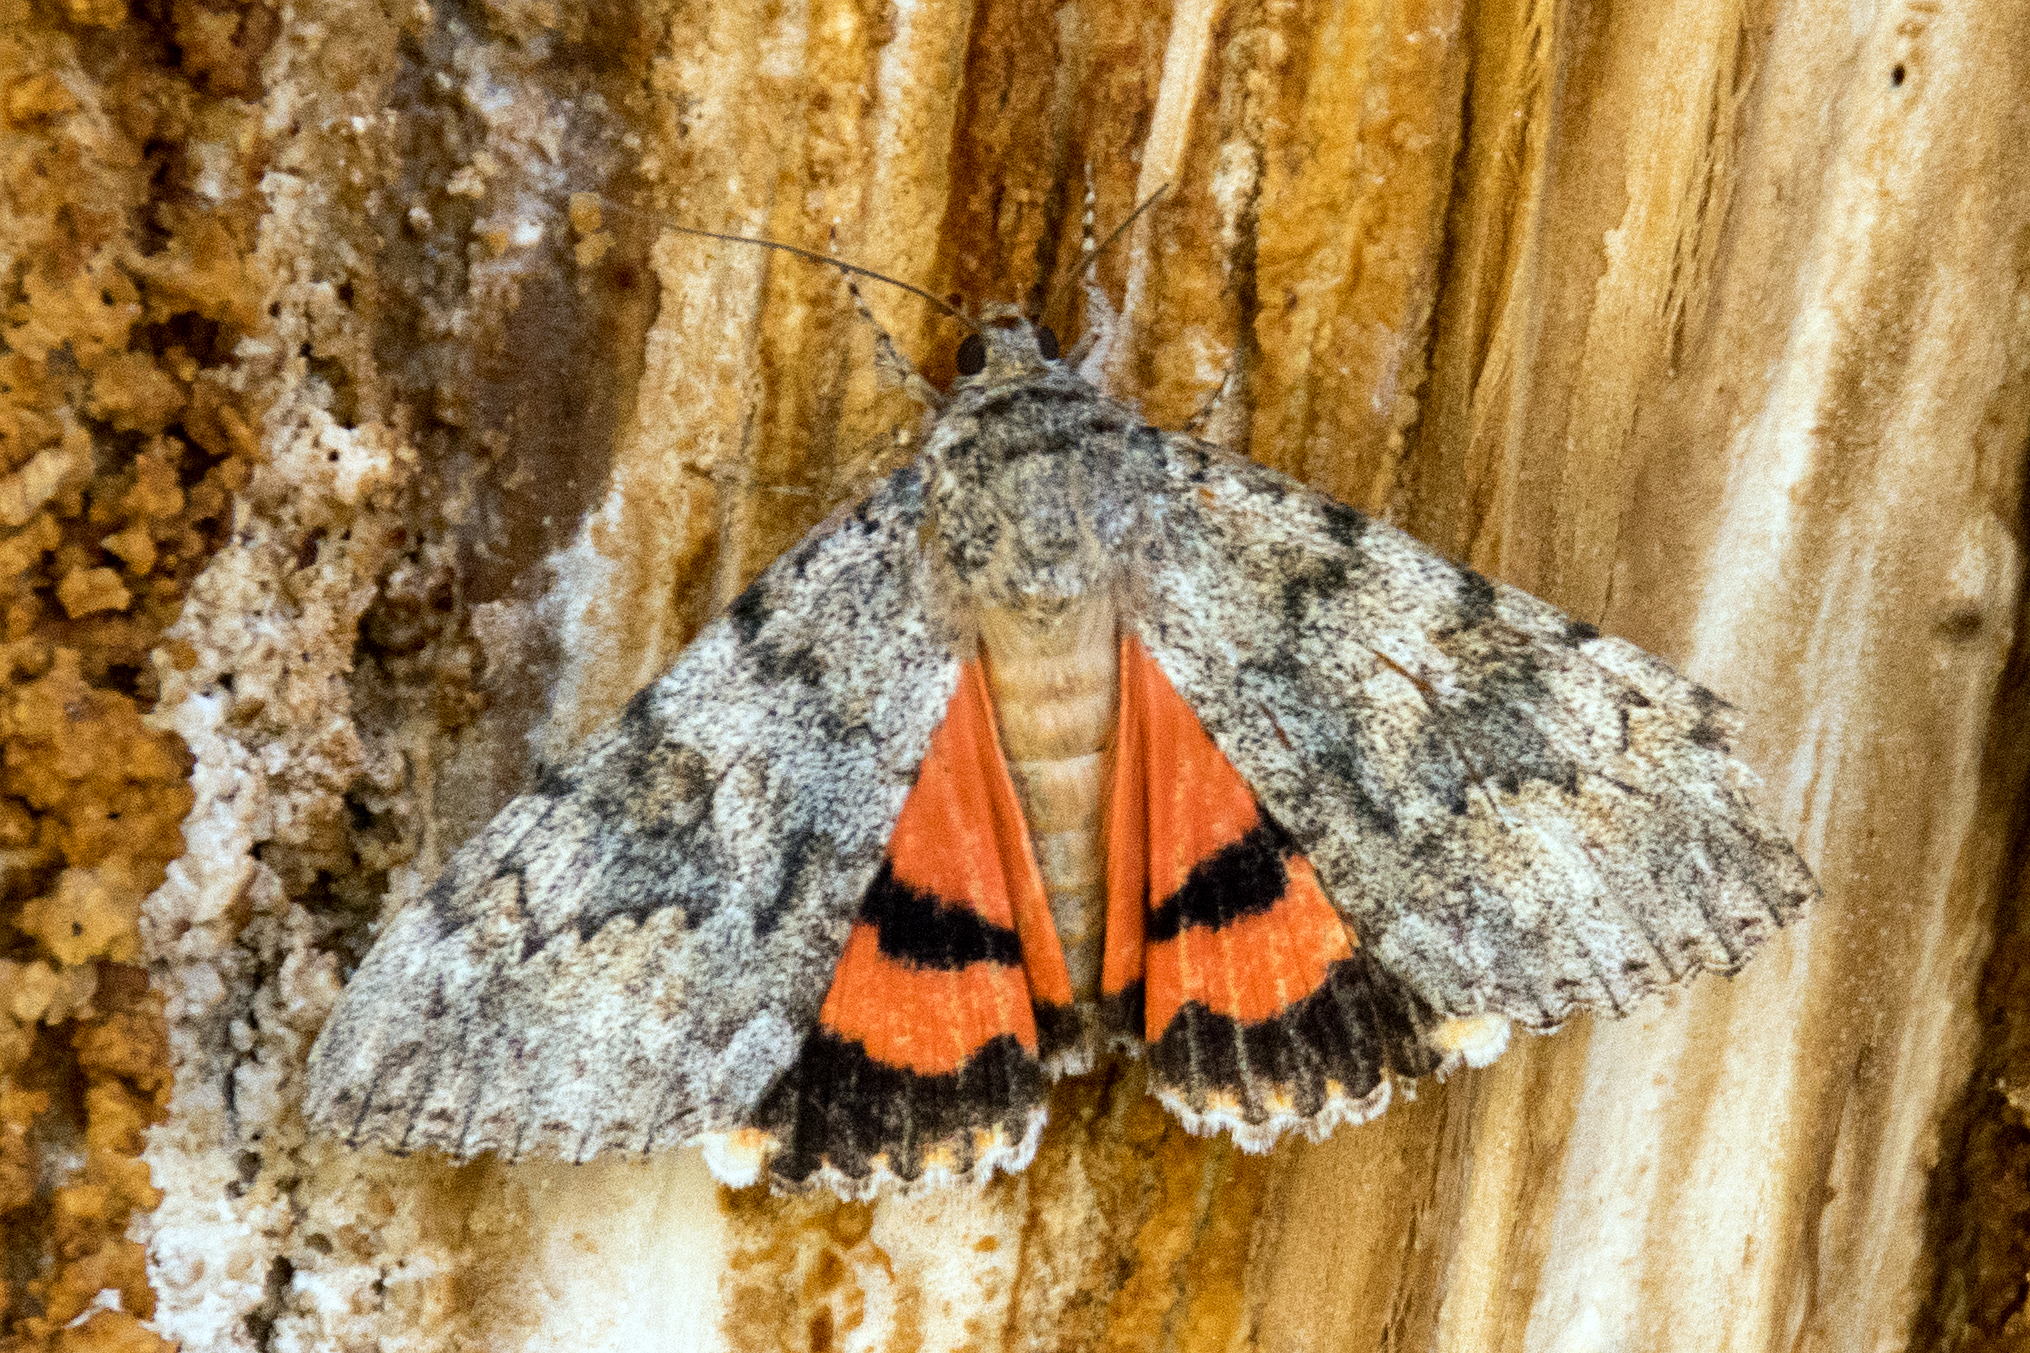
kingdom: Animalia
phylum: Arthropoda
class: Insecta
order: Lepidoptera
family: Erebidae
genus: Catocala
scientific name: Catocala junctura
